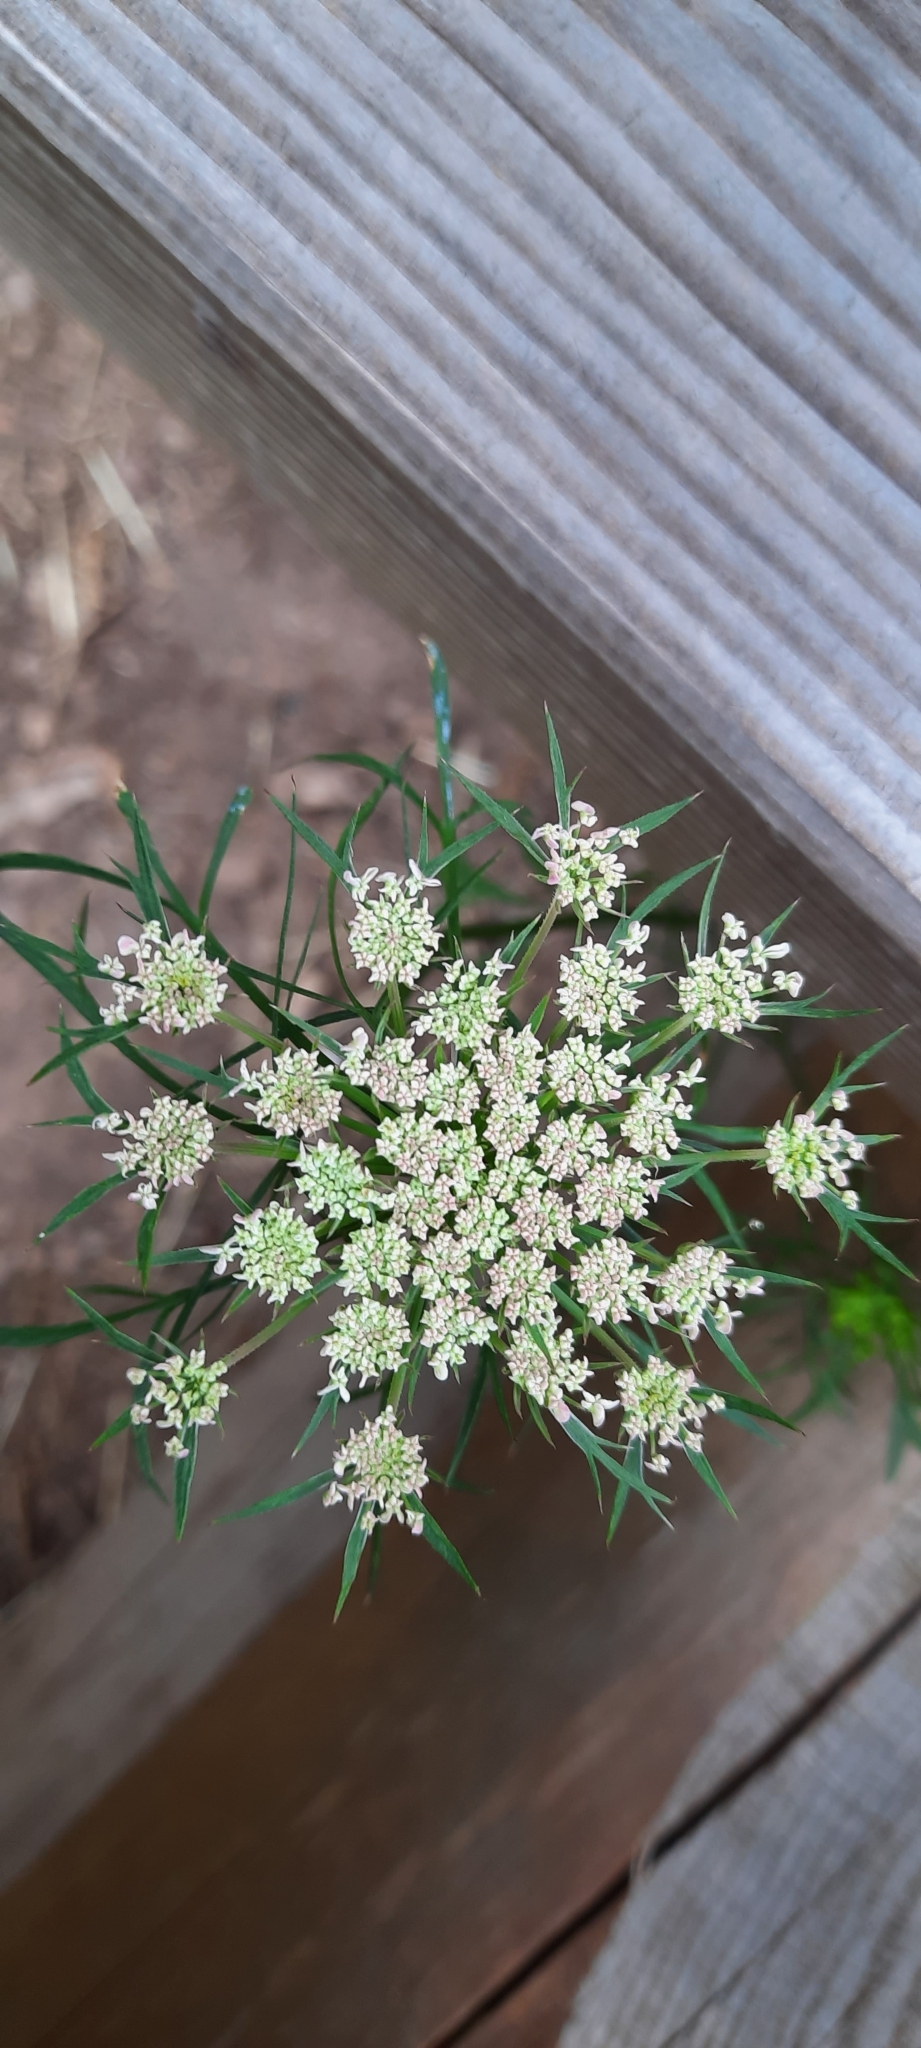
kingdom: Plantae
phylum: Tracheophyta
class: Magnoliopsida
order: Apiales
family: Apiaceae
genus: Ammi
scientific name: Ammi majus
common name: Bullwort
